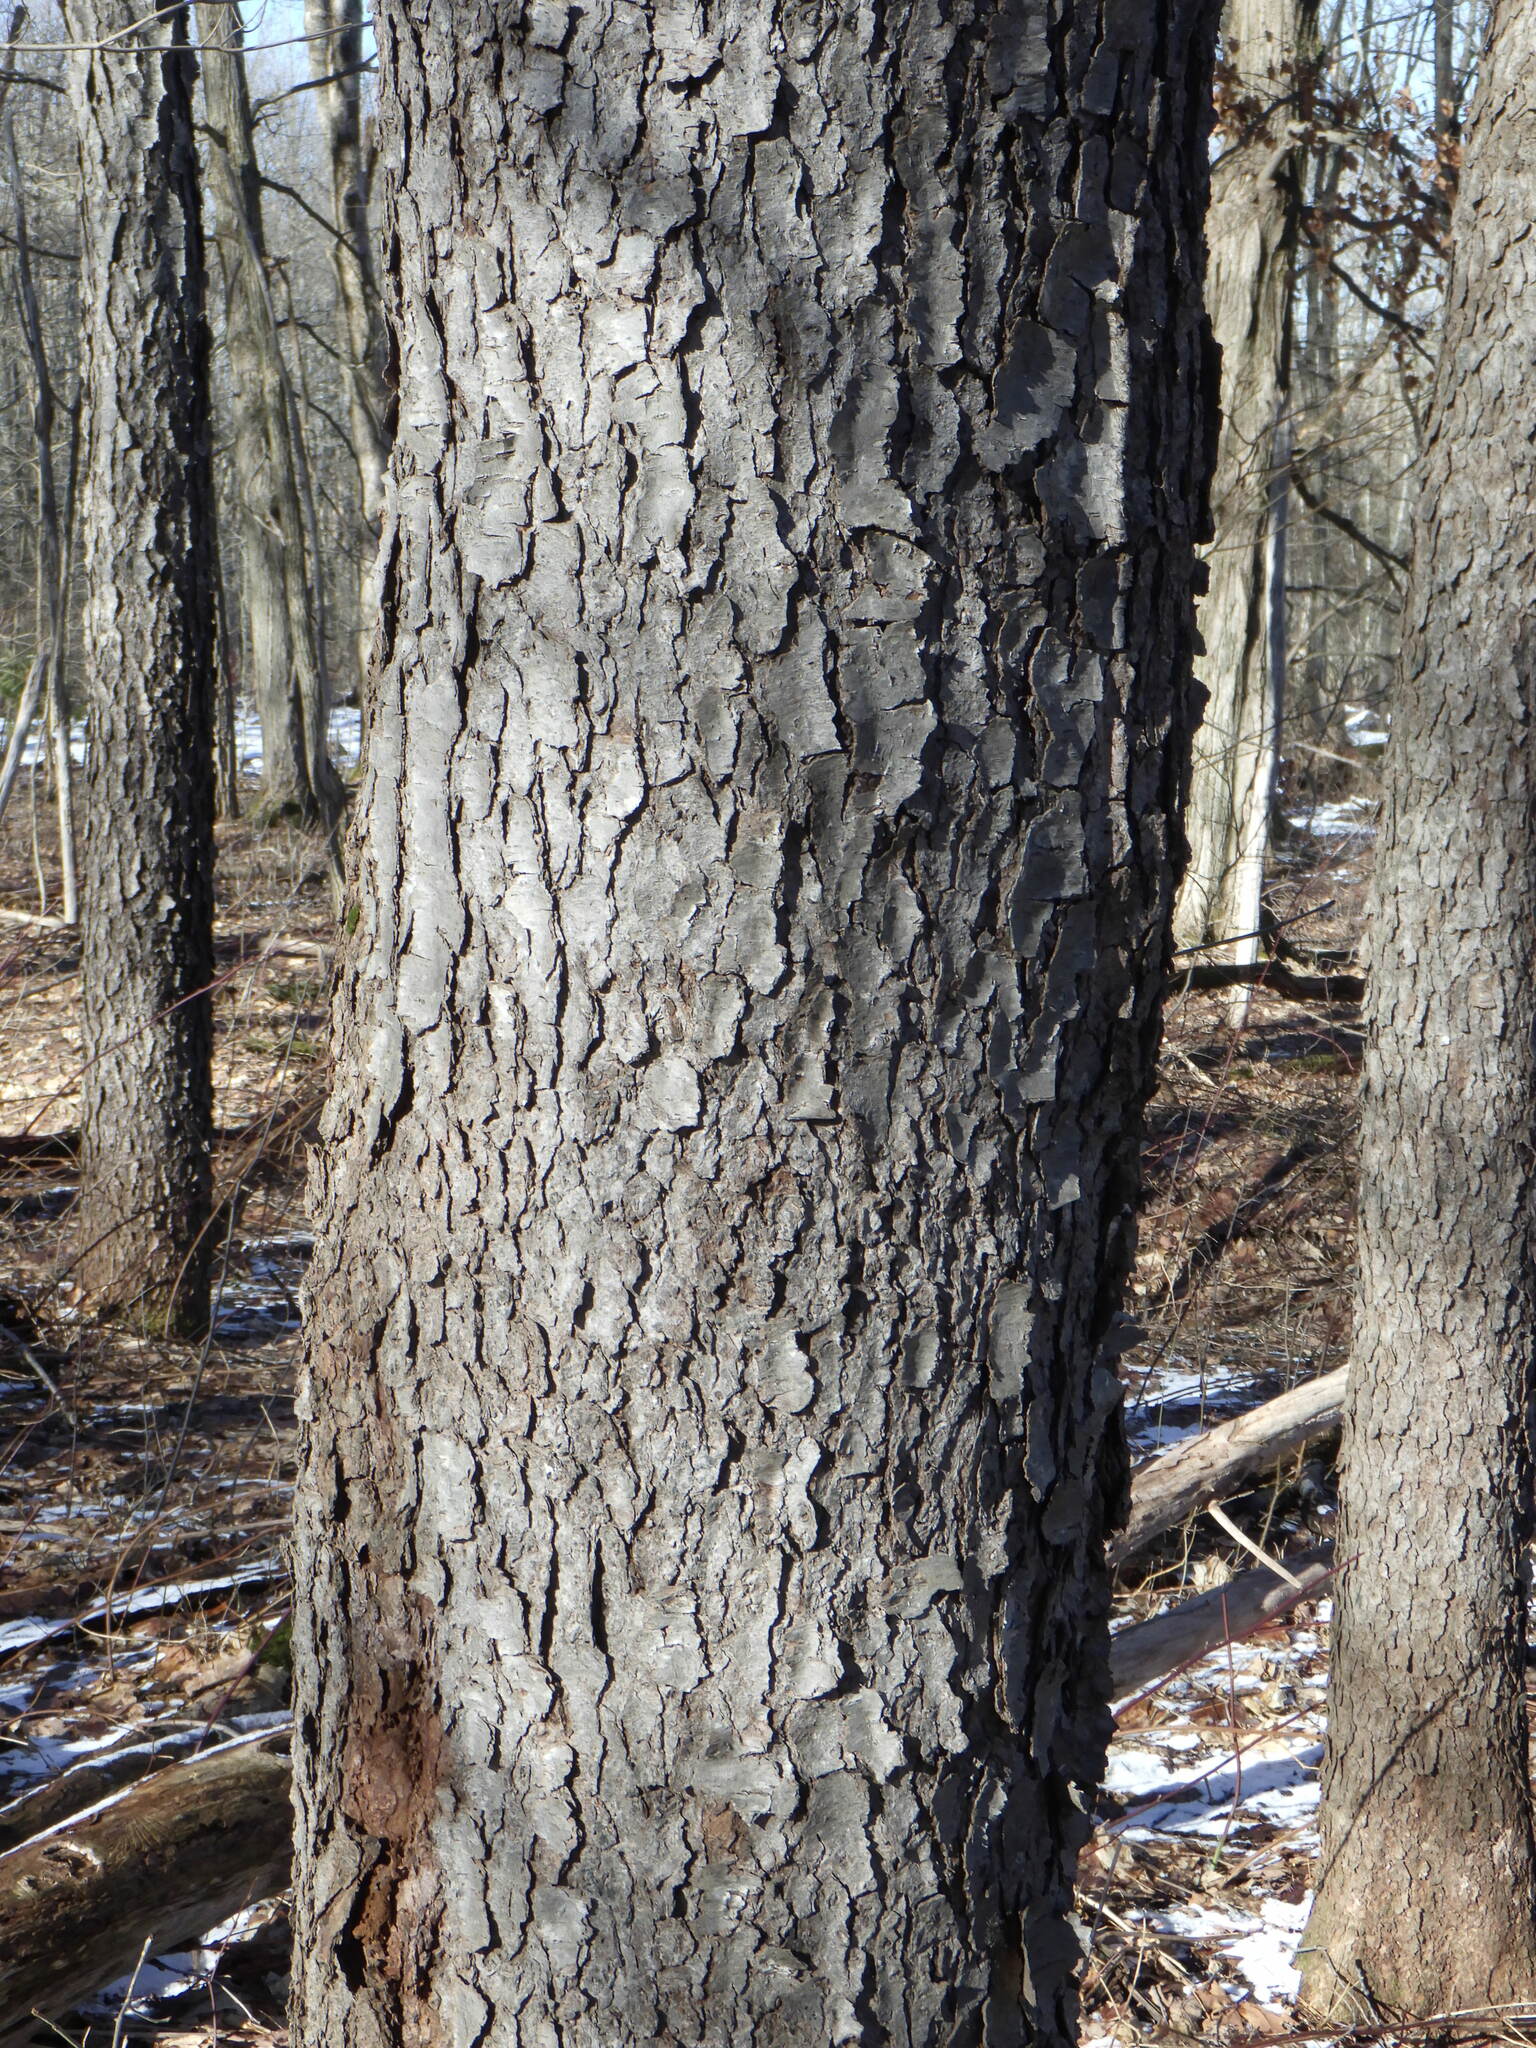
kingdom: Plantae
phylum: Tracheophyta
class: Magnoliopsida
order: Rosales
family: Rosaceae
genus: Prunus
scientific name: Prunus serotina
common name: Black cherry
